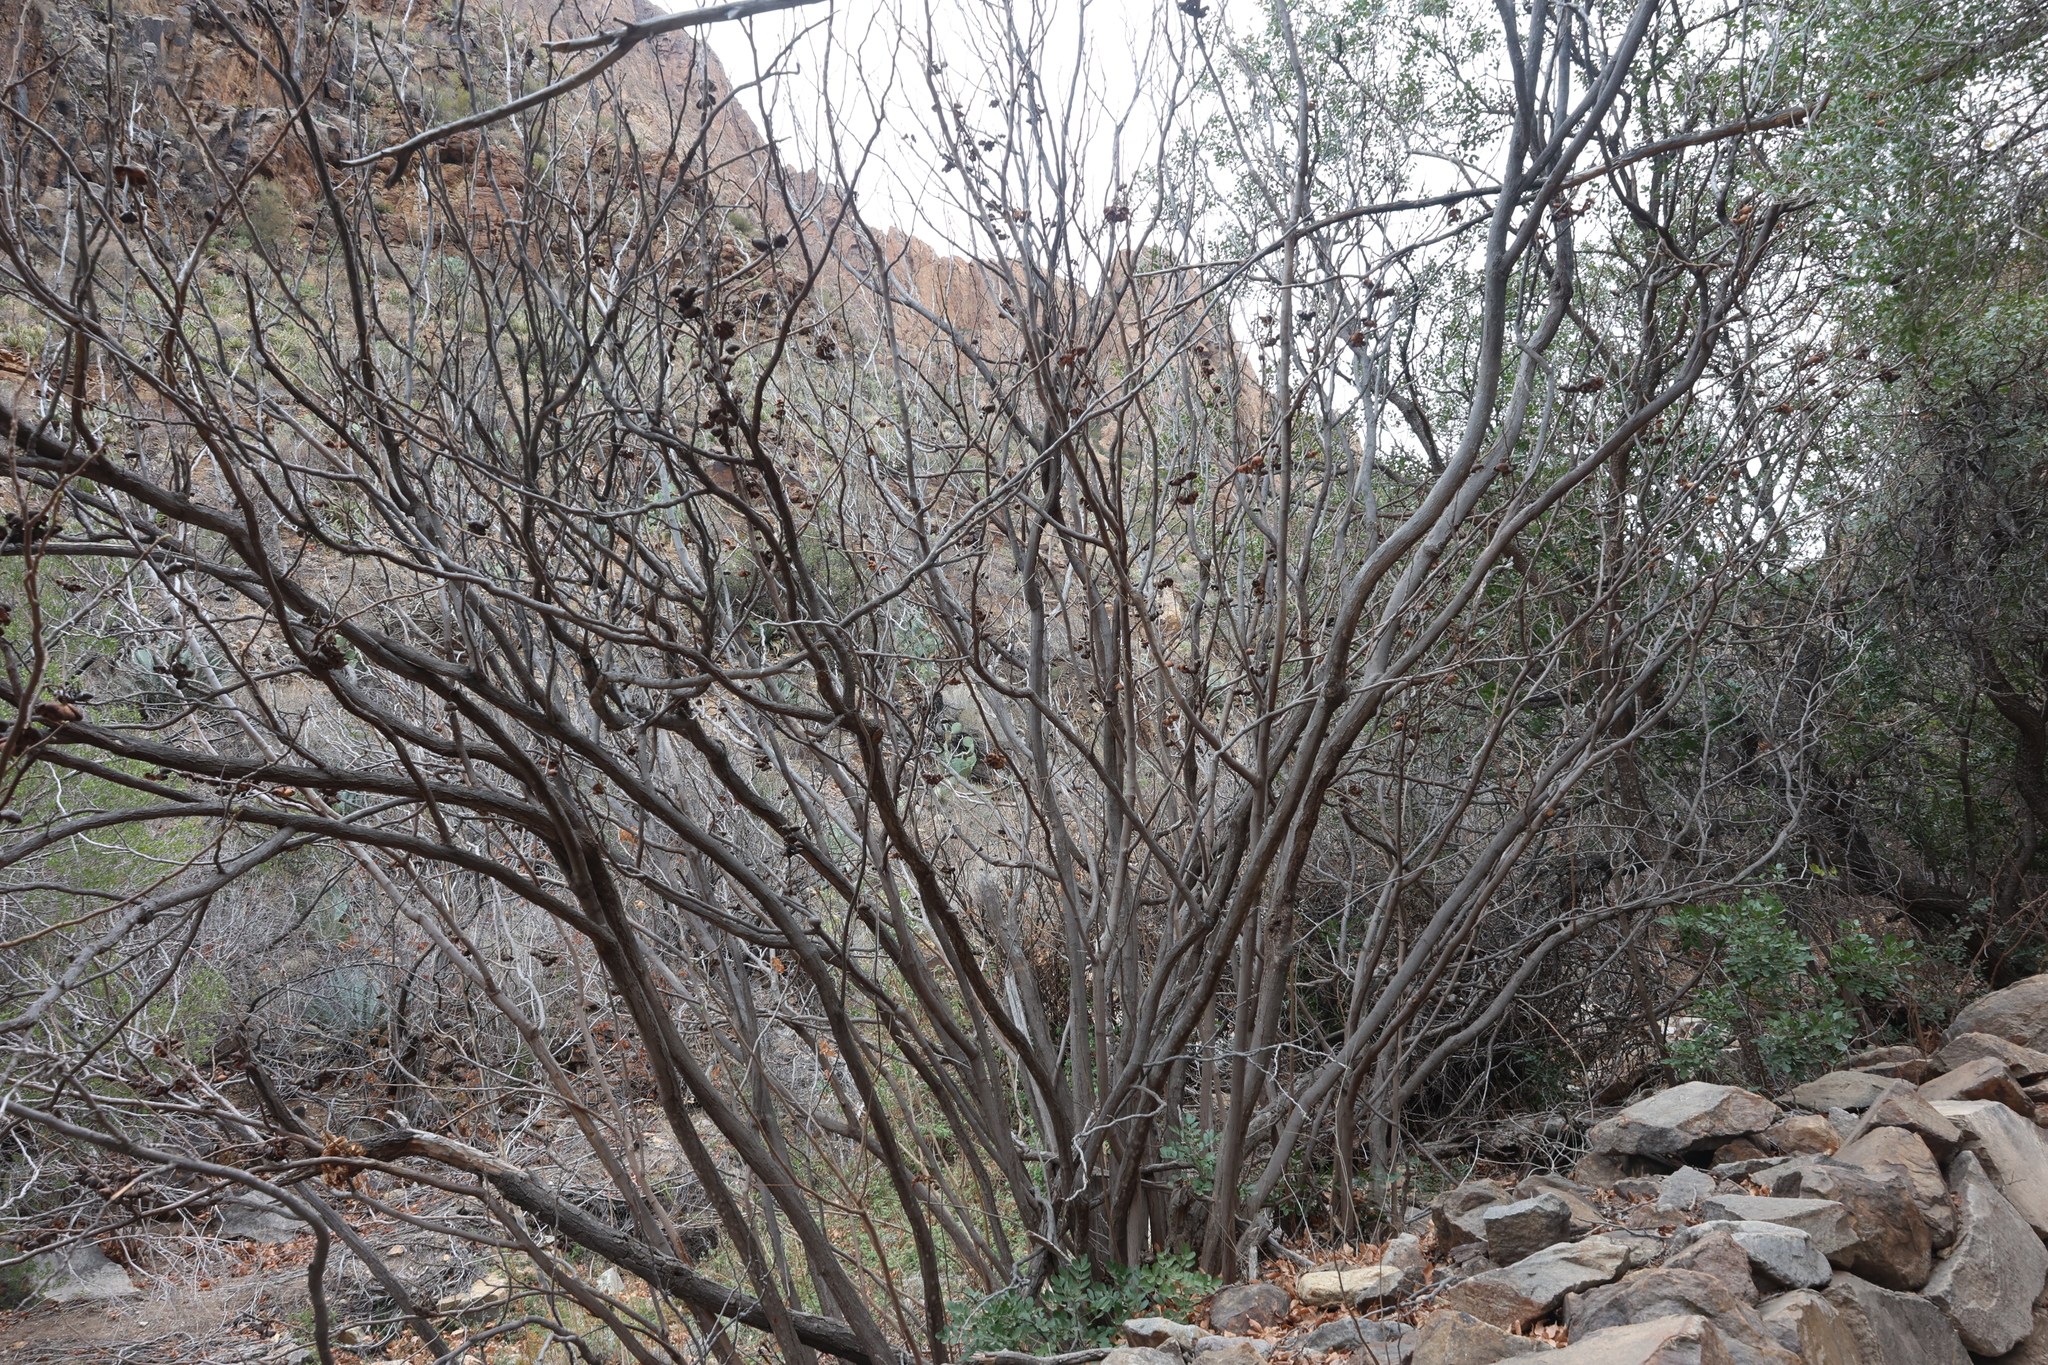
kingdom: Plantae
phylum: Tracheophyta
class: Magnoliopsida
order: Sapindales
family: Sapindaceae
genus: Ungnadia
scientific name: Ungnadia speciosa
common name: Texas-buckeye
